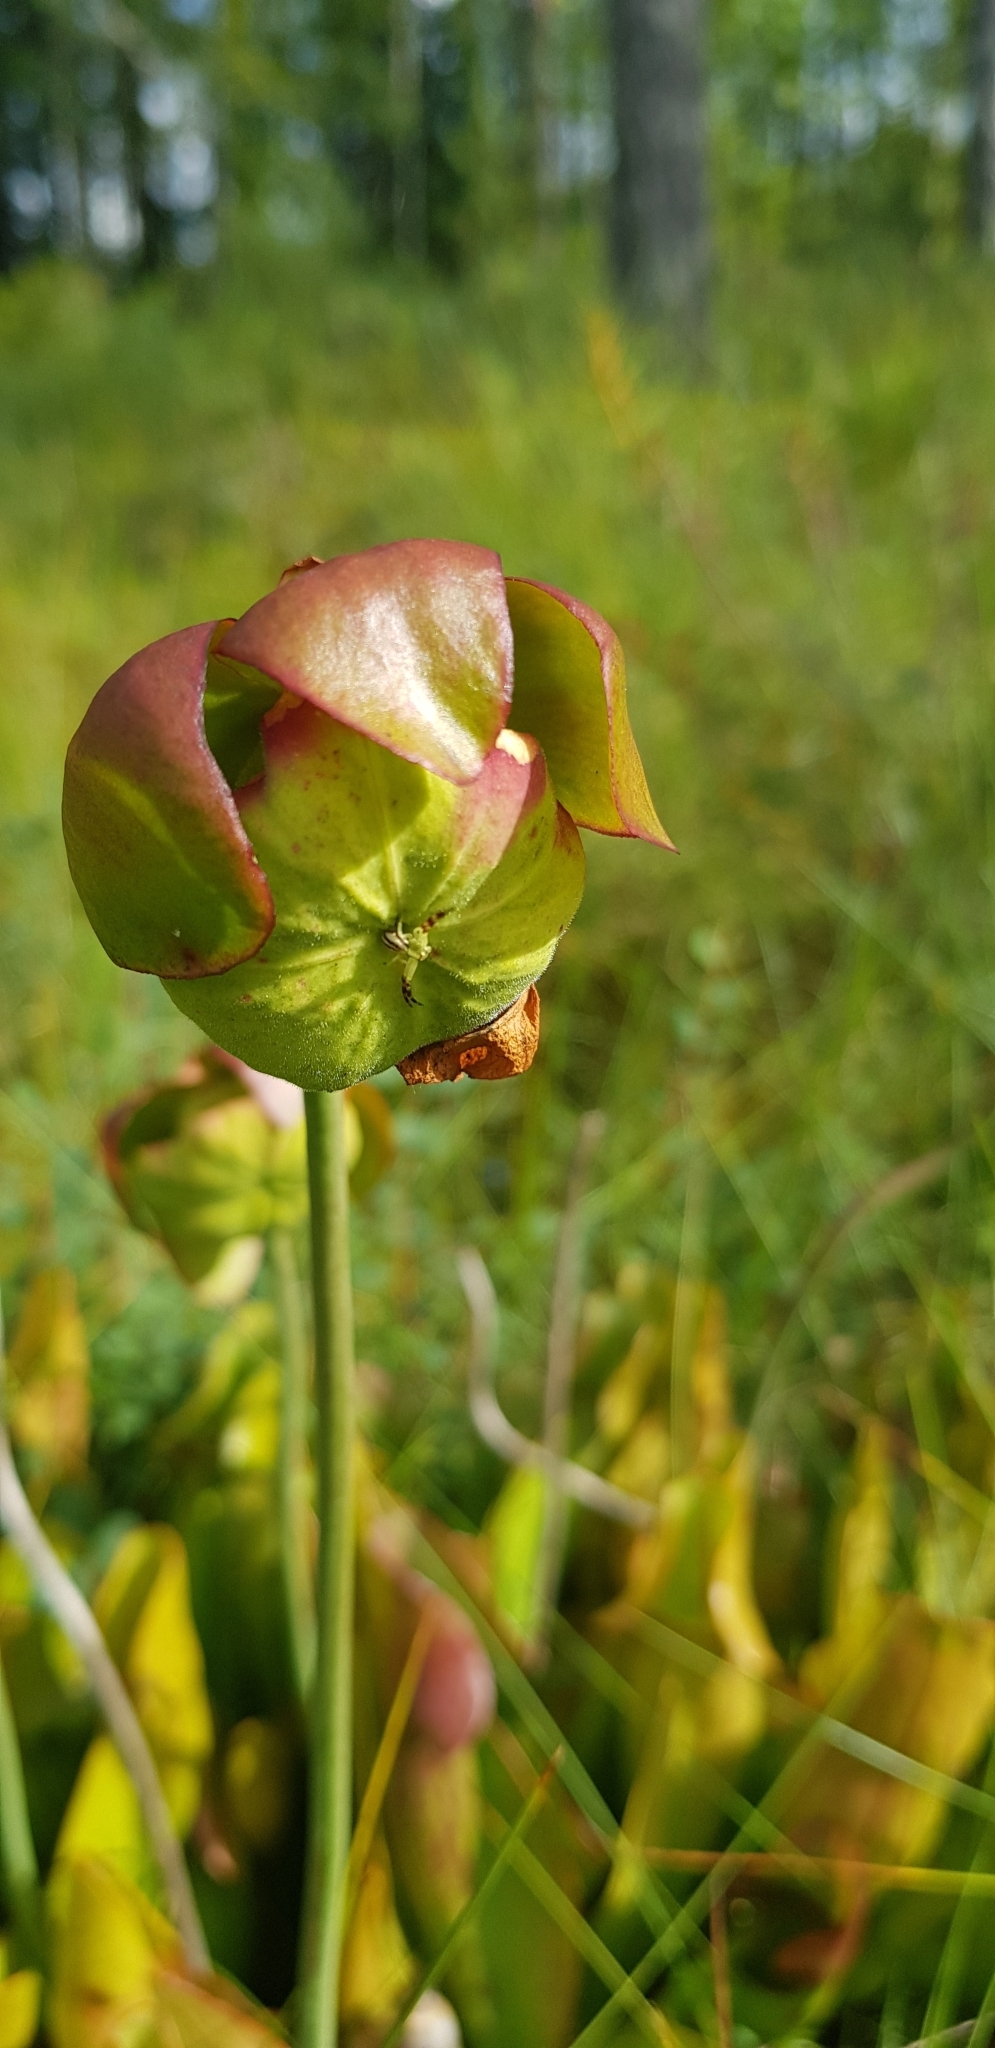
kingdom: Plantae
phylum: Tracheophyta
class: Magnoliopsida
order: Ericales
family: Sarraceniaceae
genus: Sarracenia
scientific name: Sarracenia purpurea
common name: Pitcherplant
